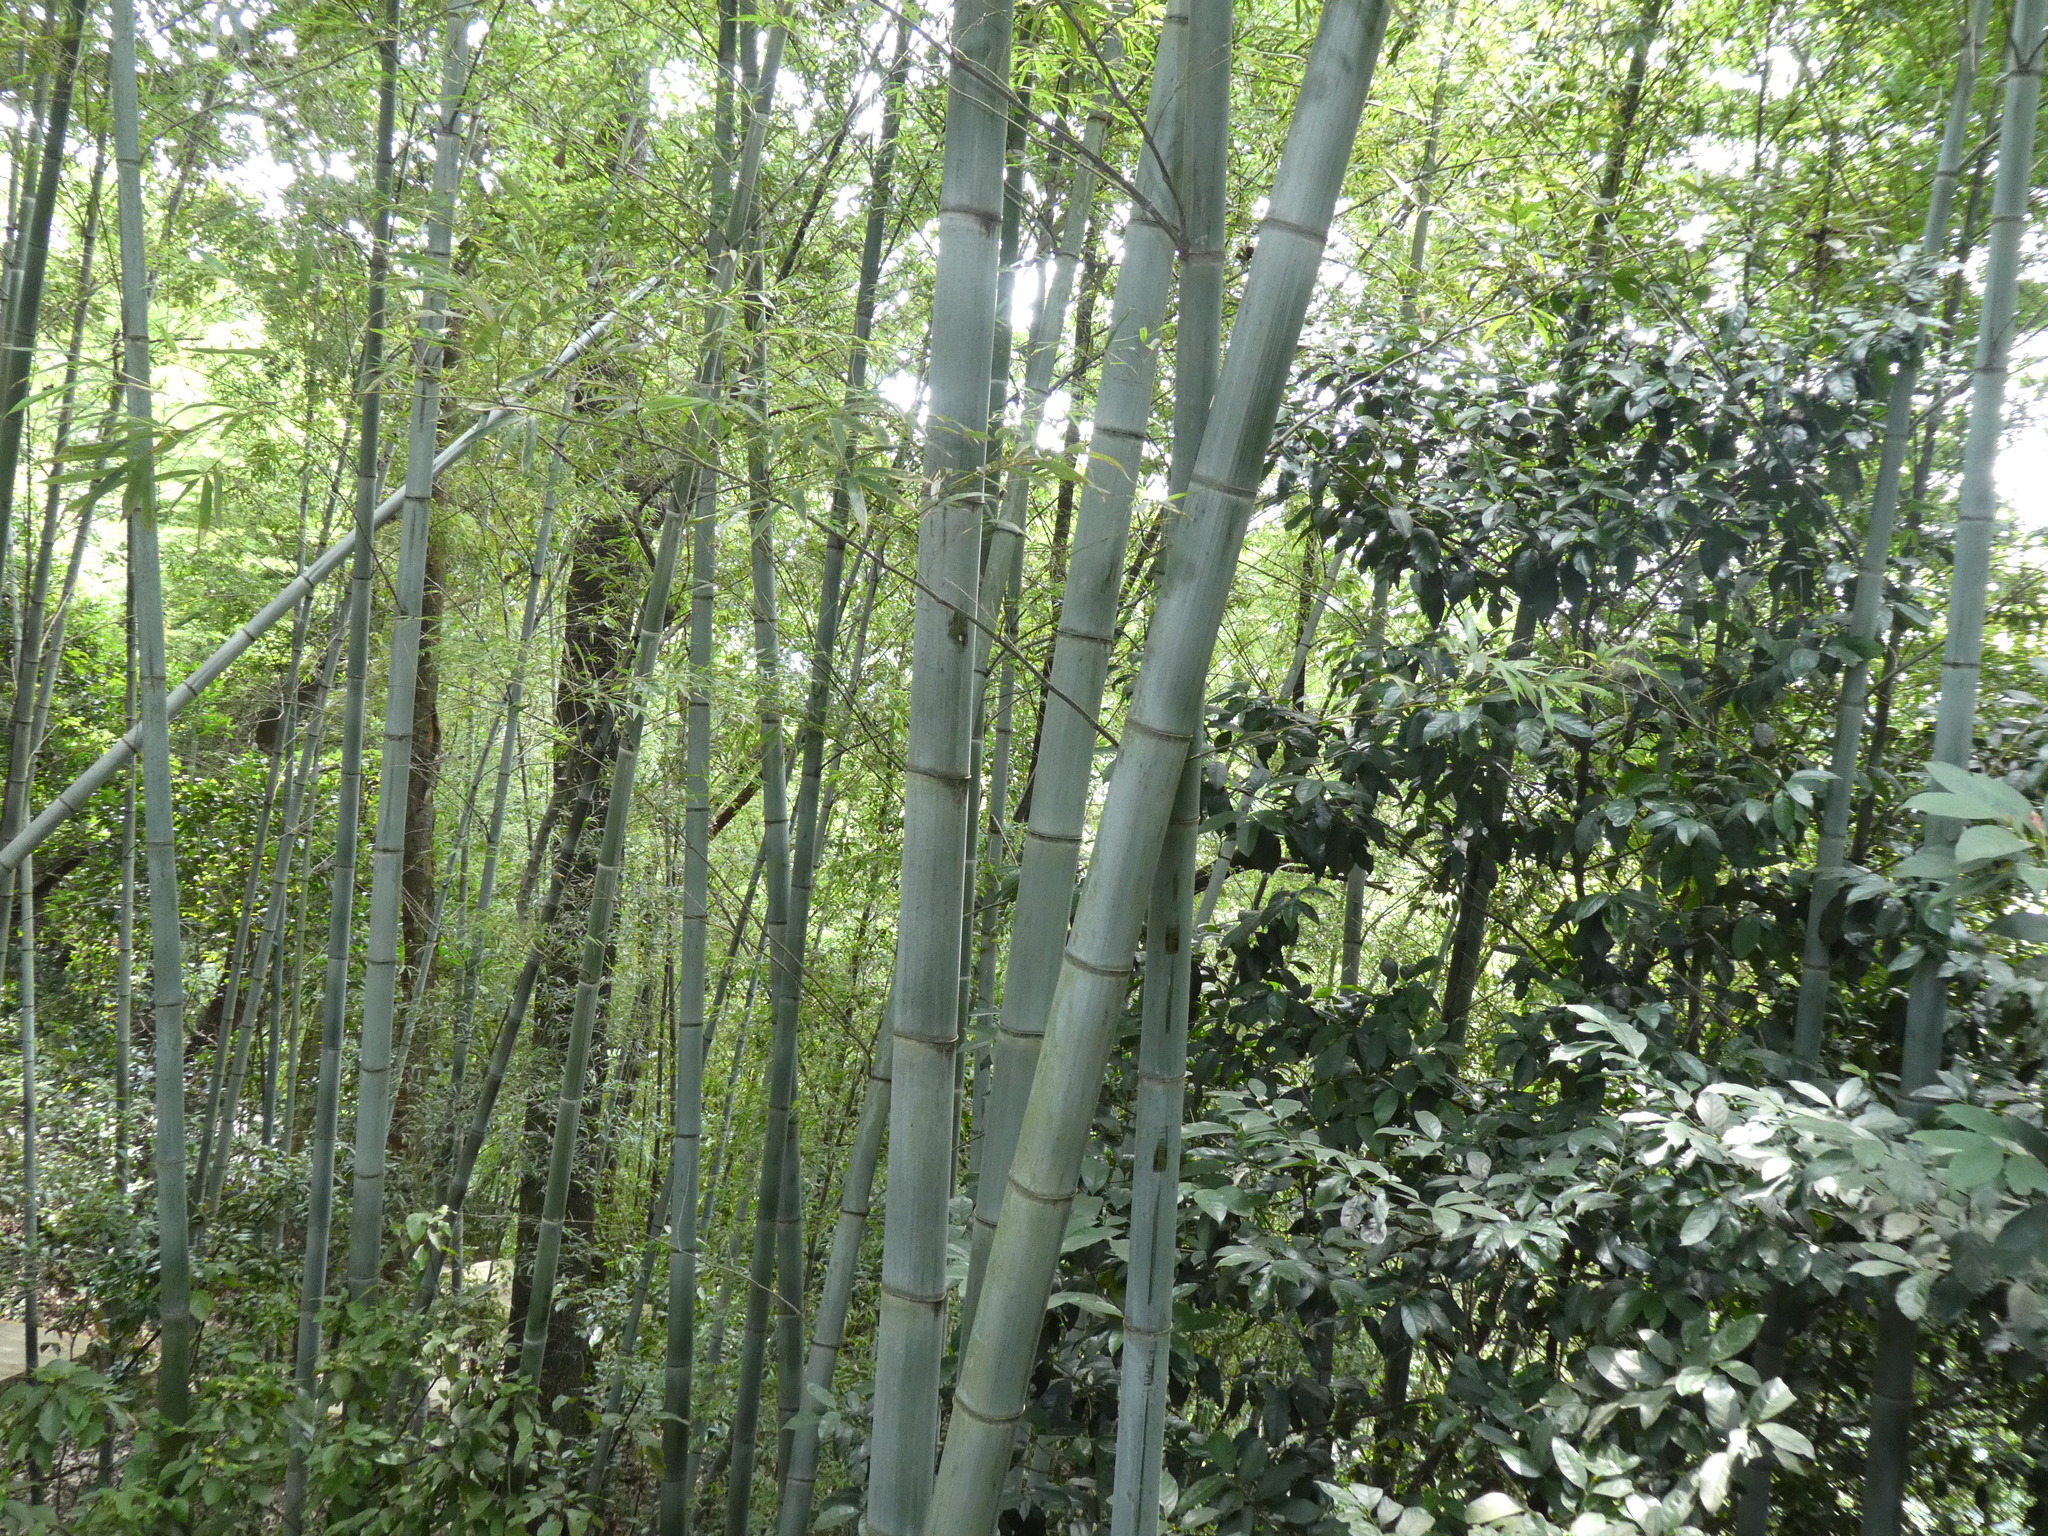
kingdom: Plantae
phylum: Tracheophyta
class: Liliopsida
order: Poales
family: Poaceae
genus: Phyllostachys
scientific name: Phyllostachys edulis
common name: Tortoise shell bamboo
